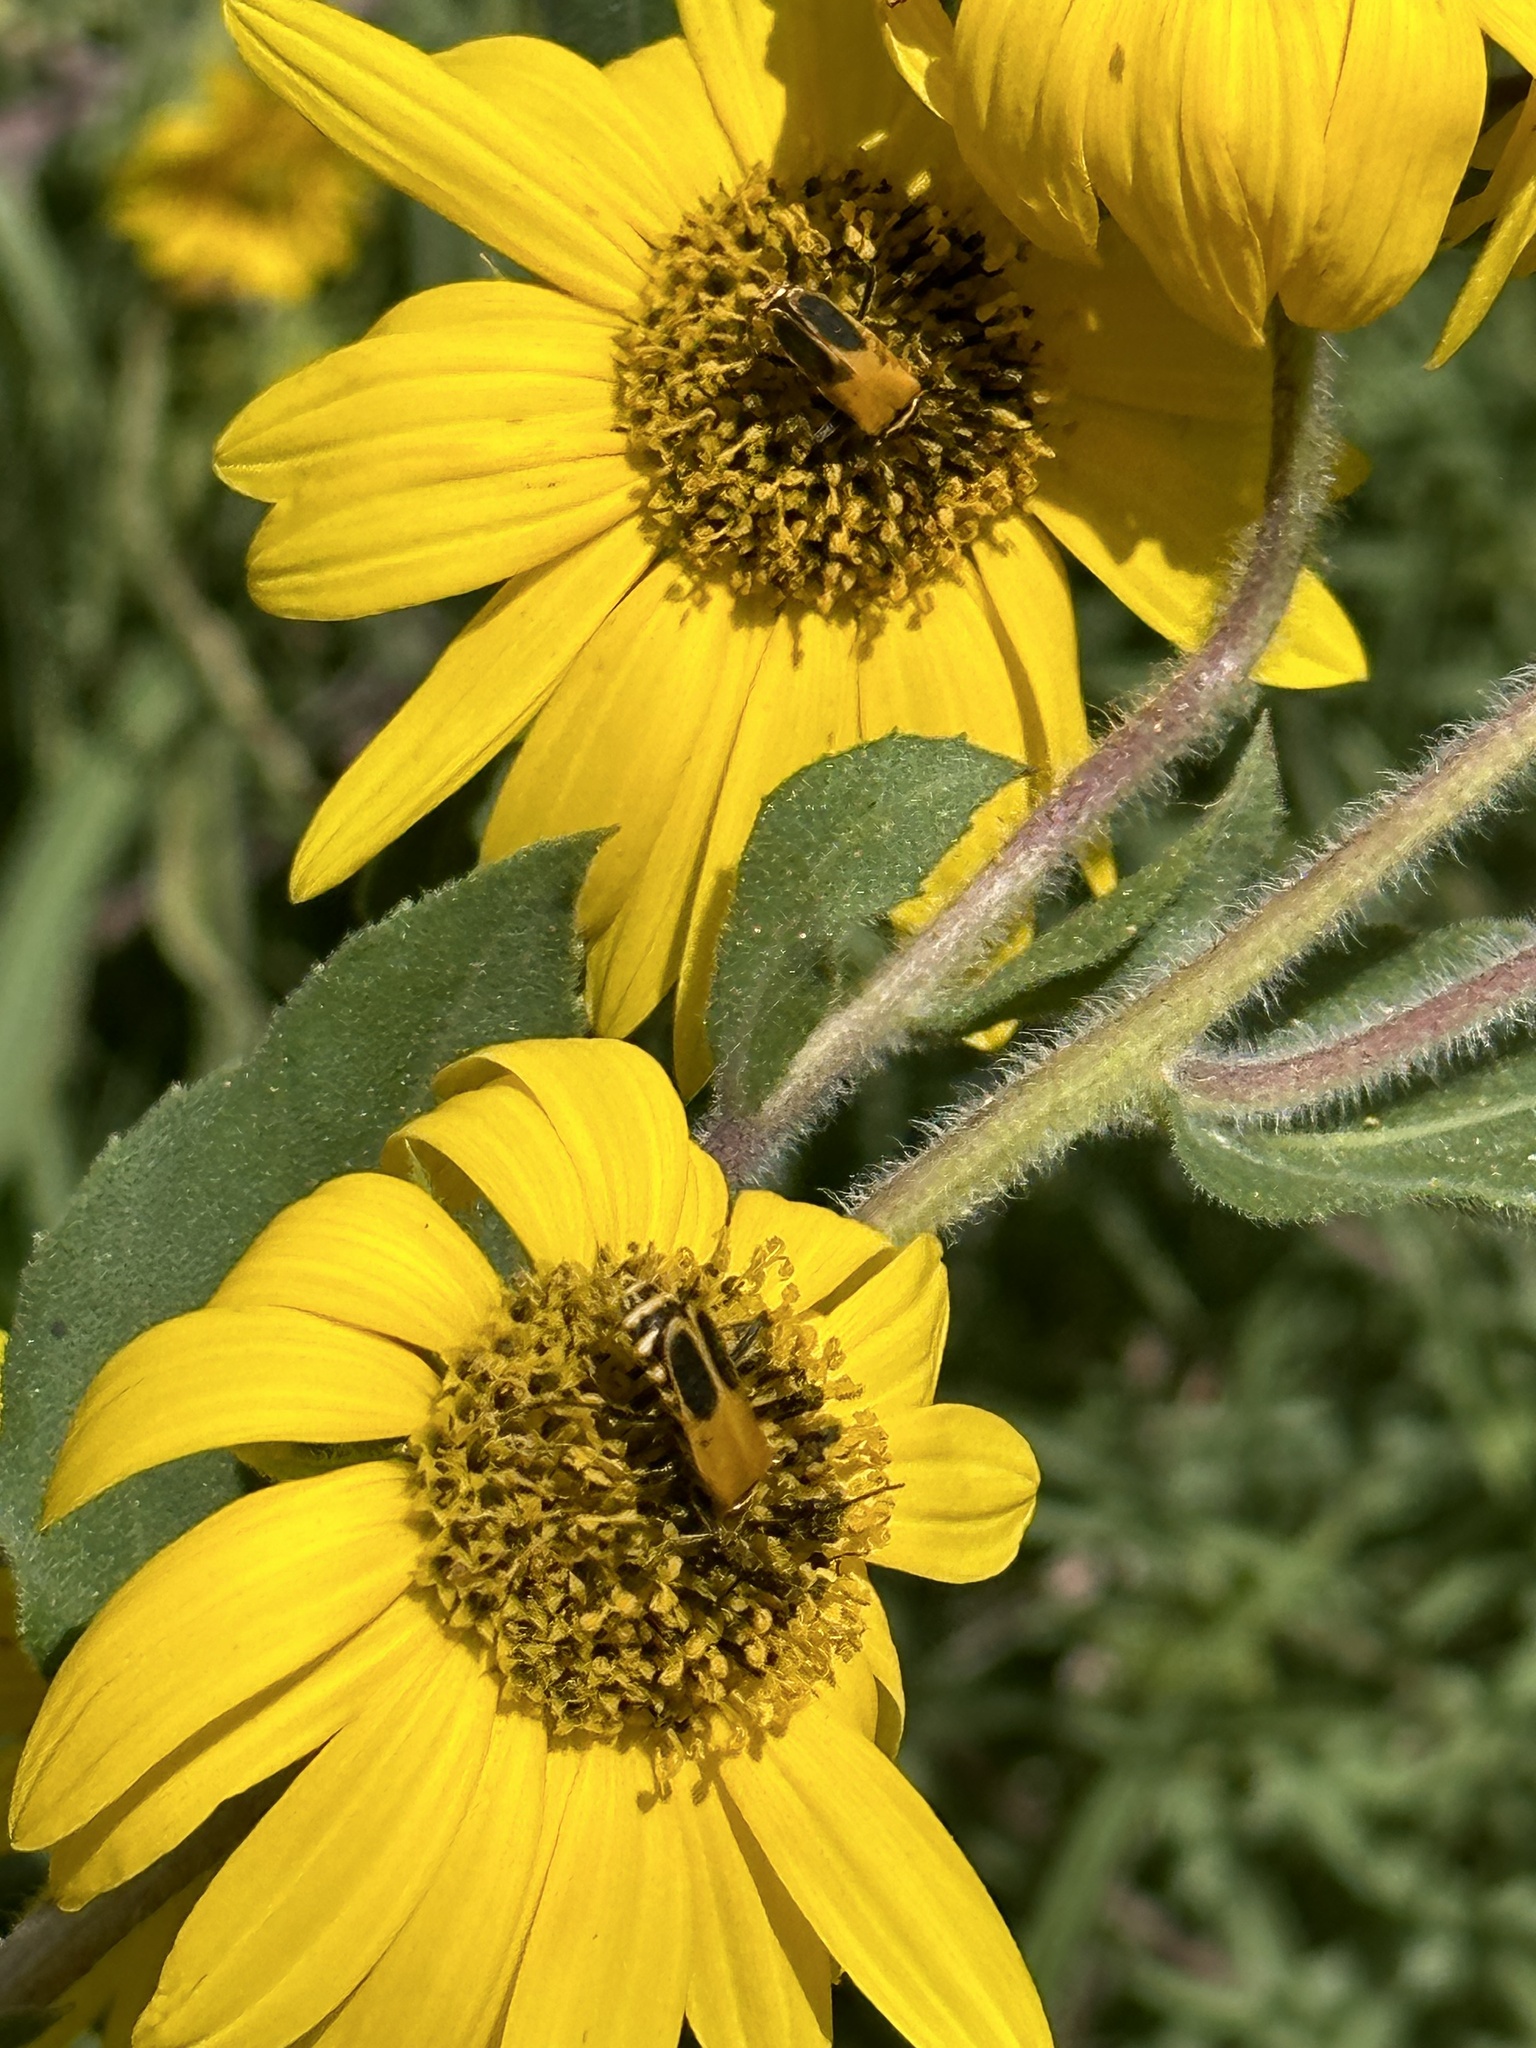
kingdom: Animalia
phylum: Arthropoda
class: Insecta
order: Coleoptera
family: Cantharidae
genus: Chauliognathus
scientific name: Chauliognathus pensylvanicus
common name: Goldenrod soldier beetle
